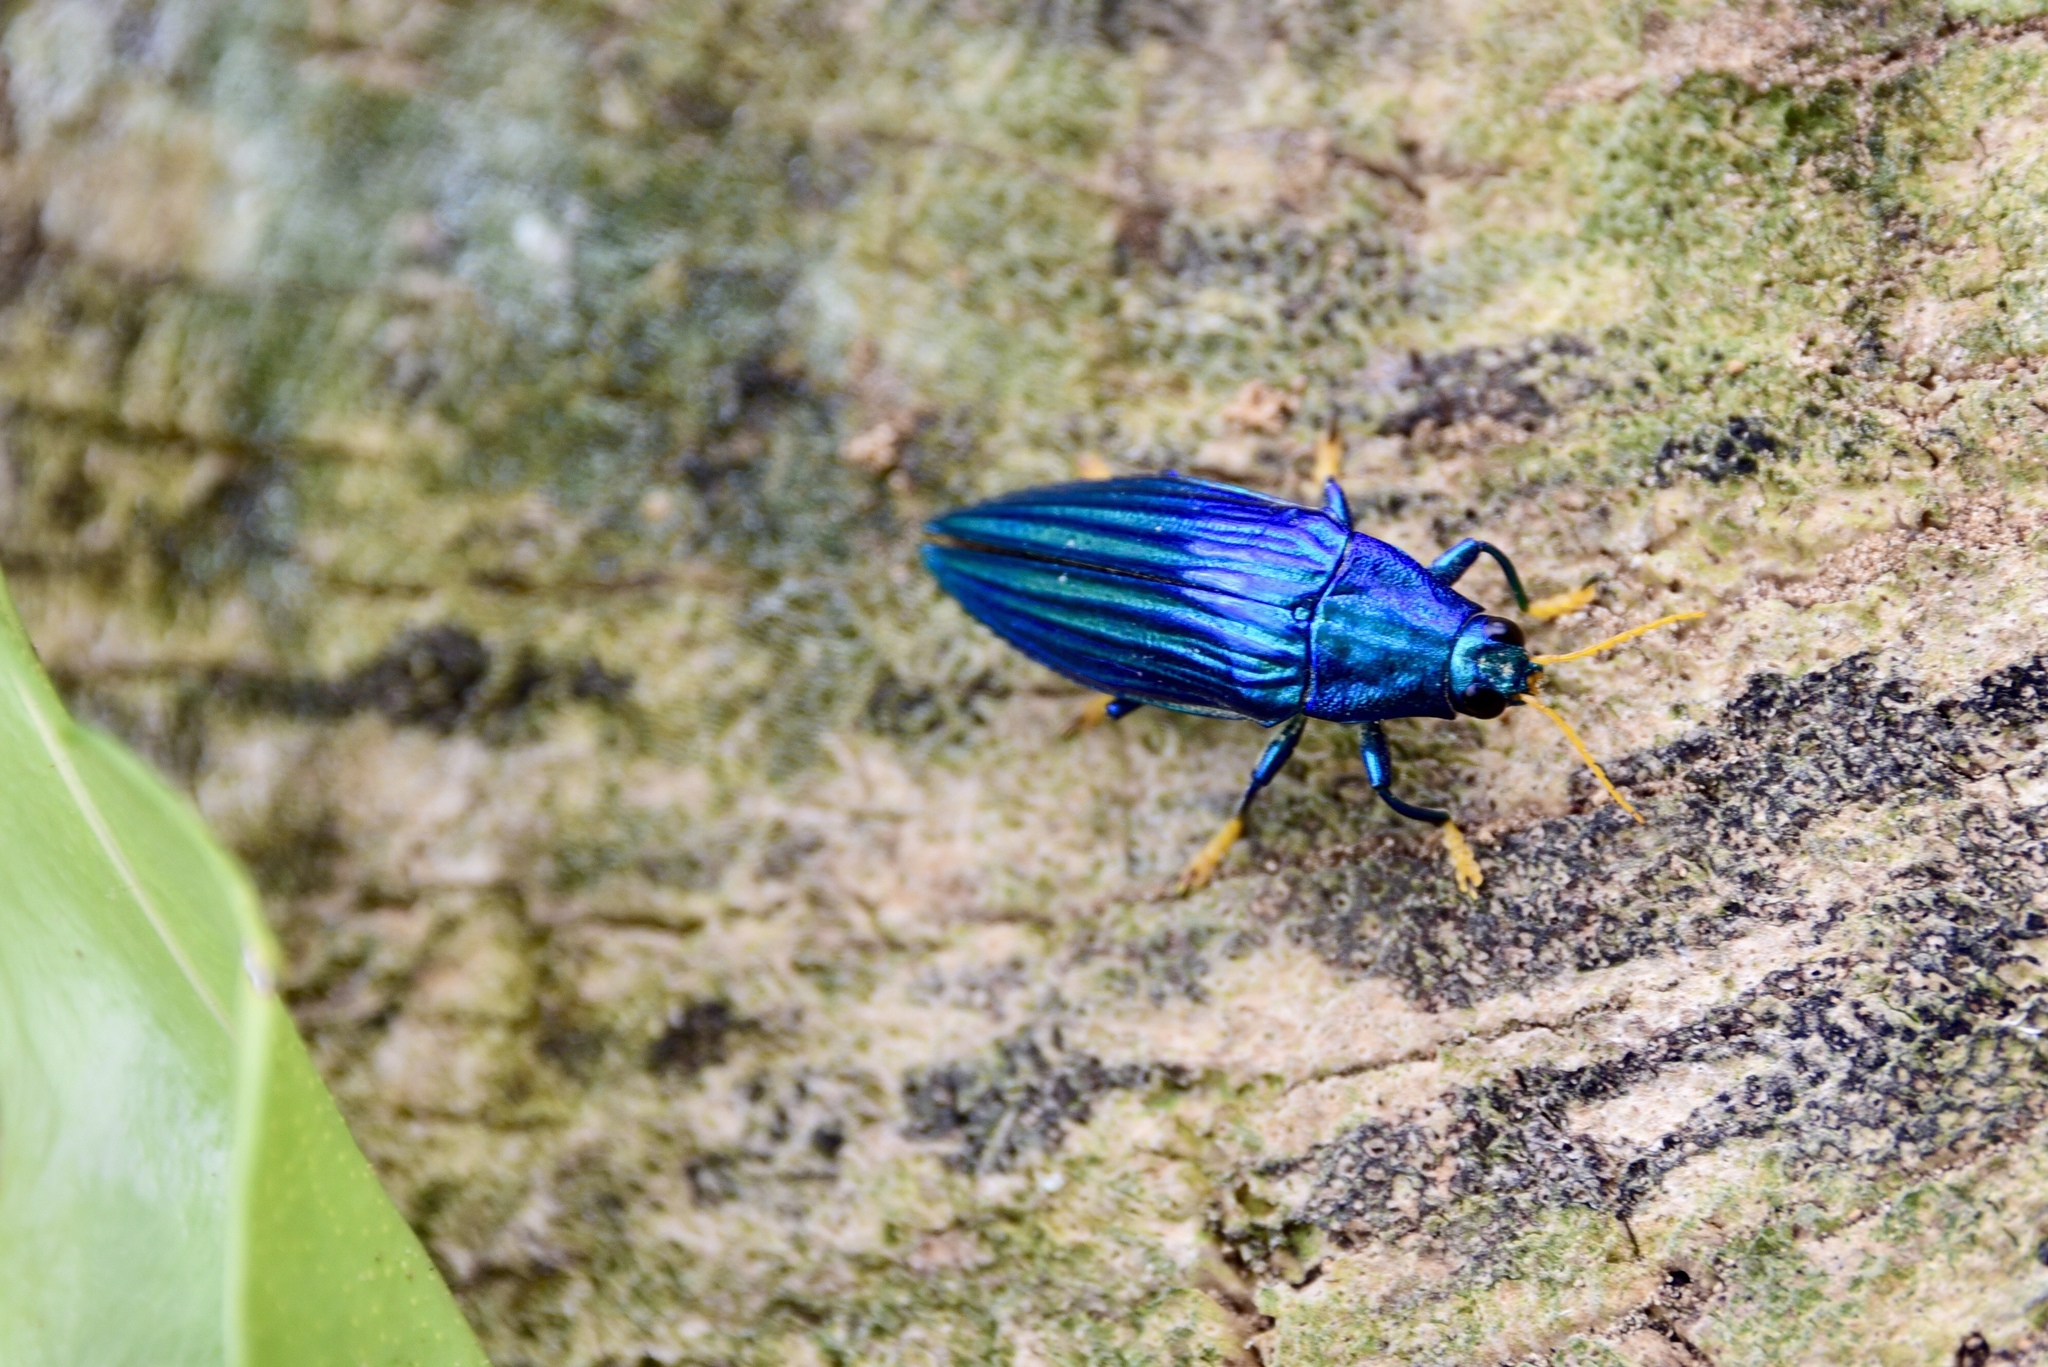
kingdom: Animalia
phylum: Arthropoda
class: Insecta
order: Coleoptera
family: Buprestidae
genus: Paracupta
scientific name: Paracupta hebridana
